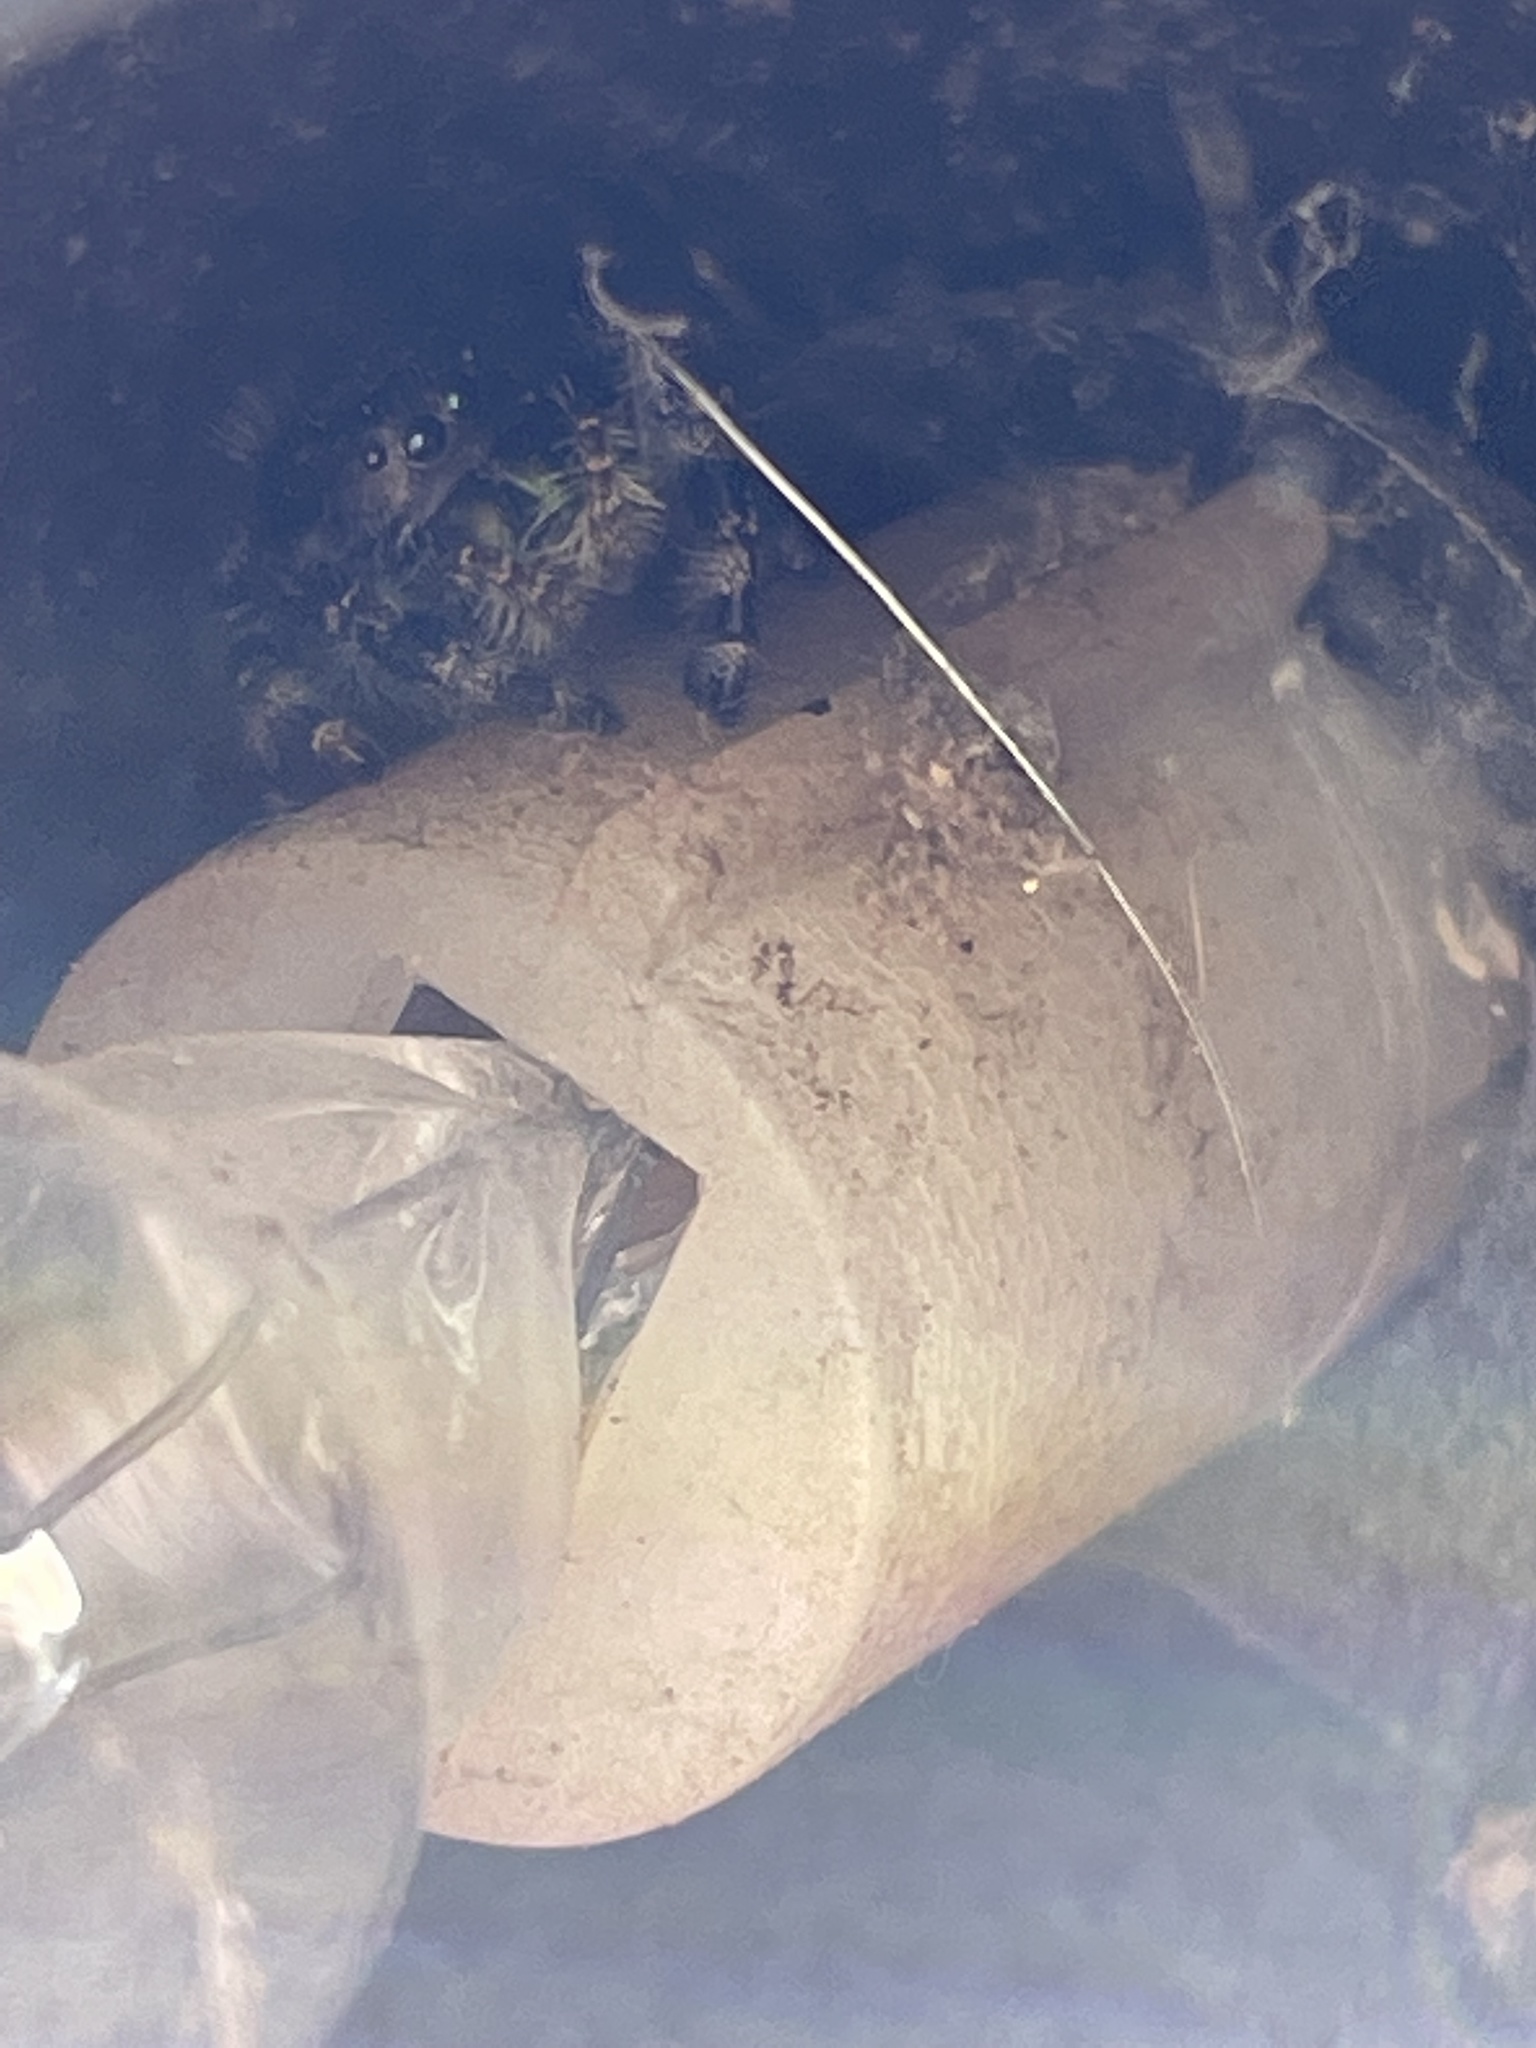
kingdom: Animalia
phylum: Arthropoda
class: Arachnida
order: Araneae
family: Salticidae
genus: Phidippus
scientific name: Phidippus audax
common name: Bold jumper
